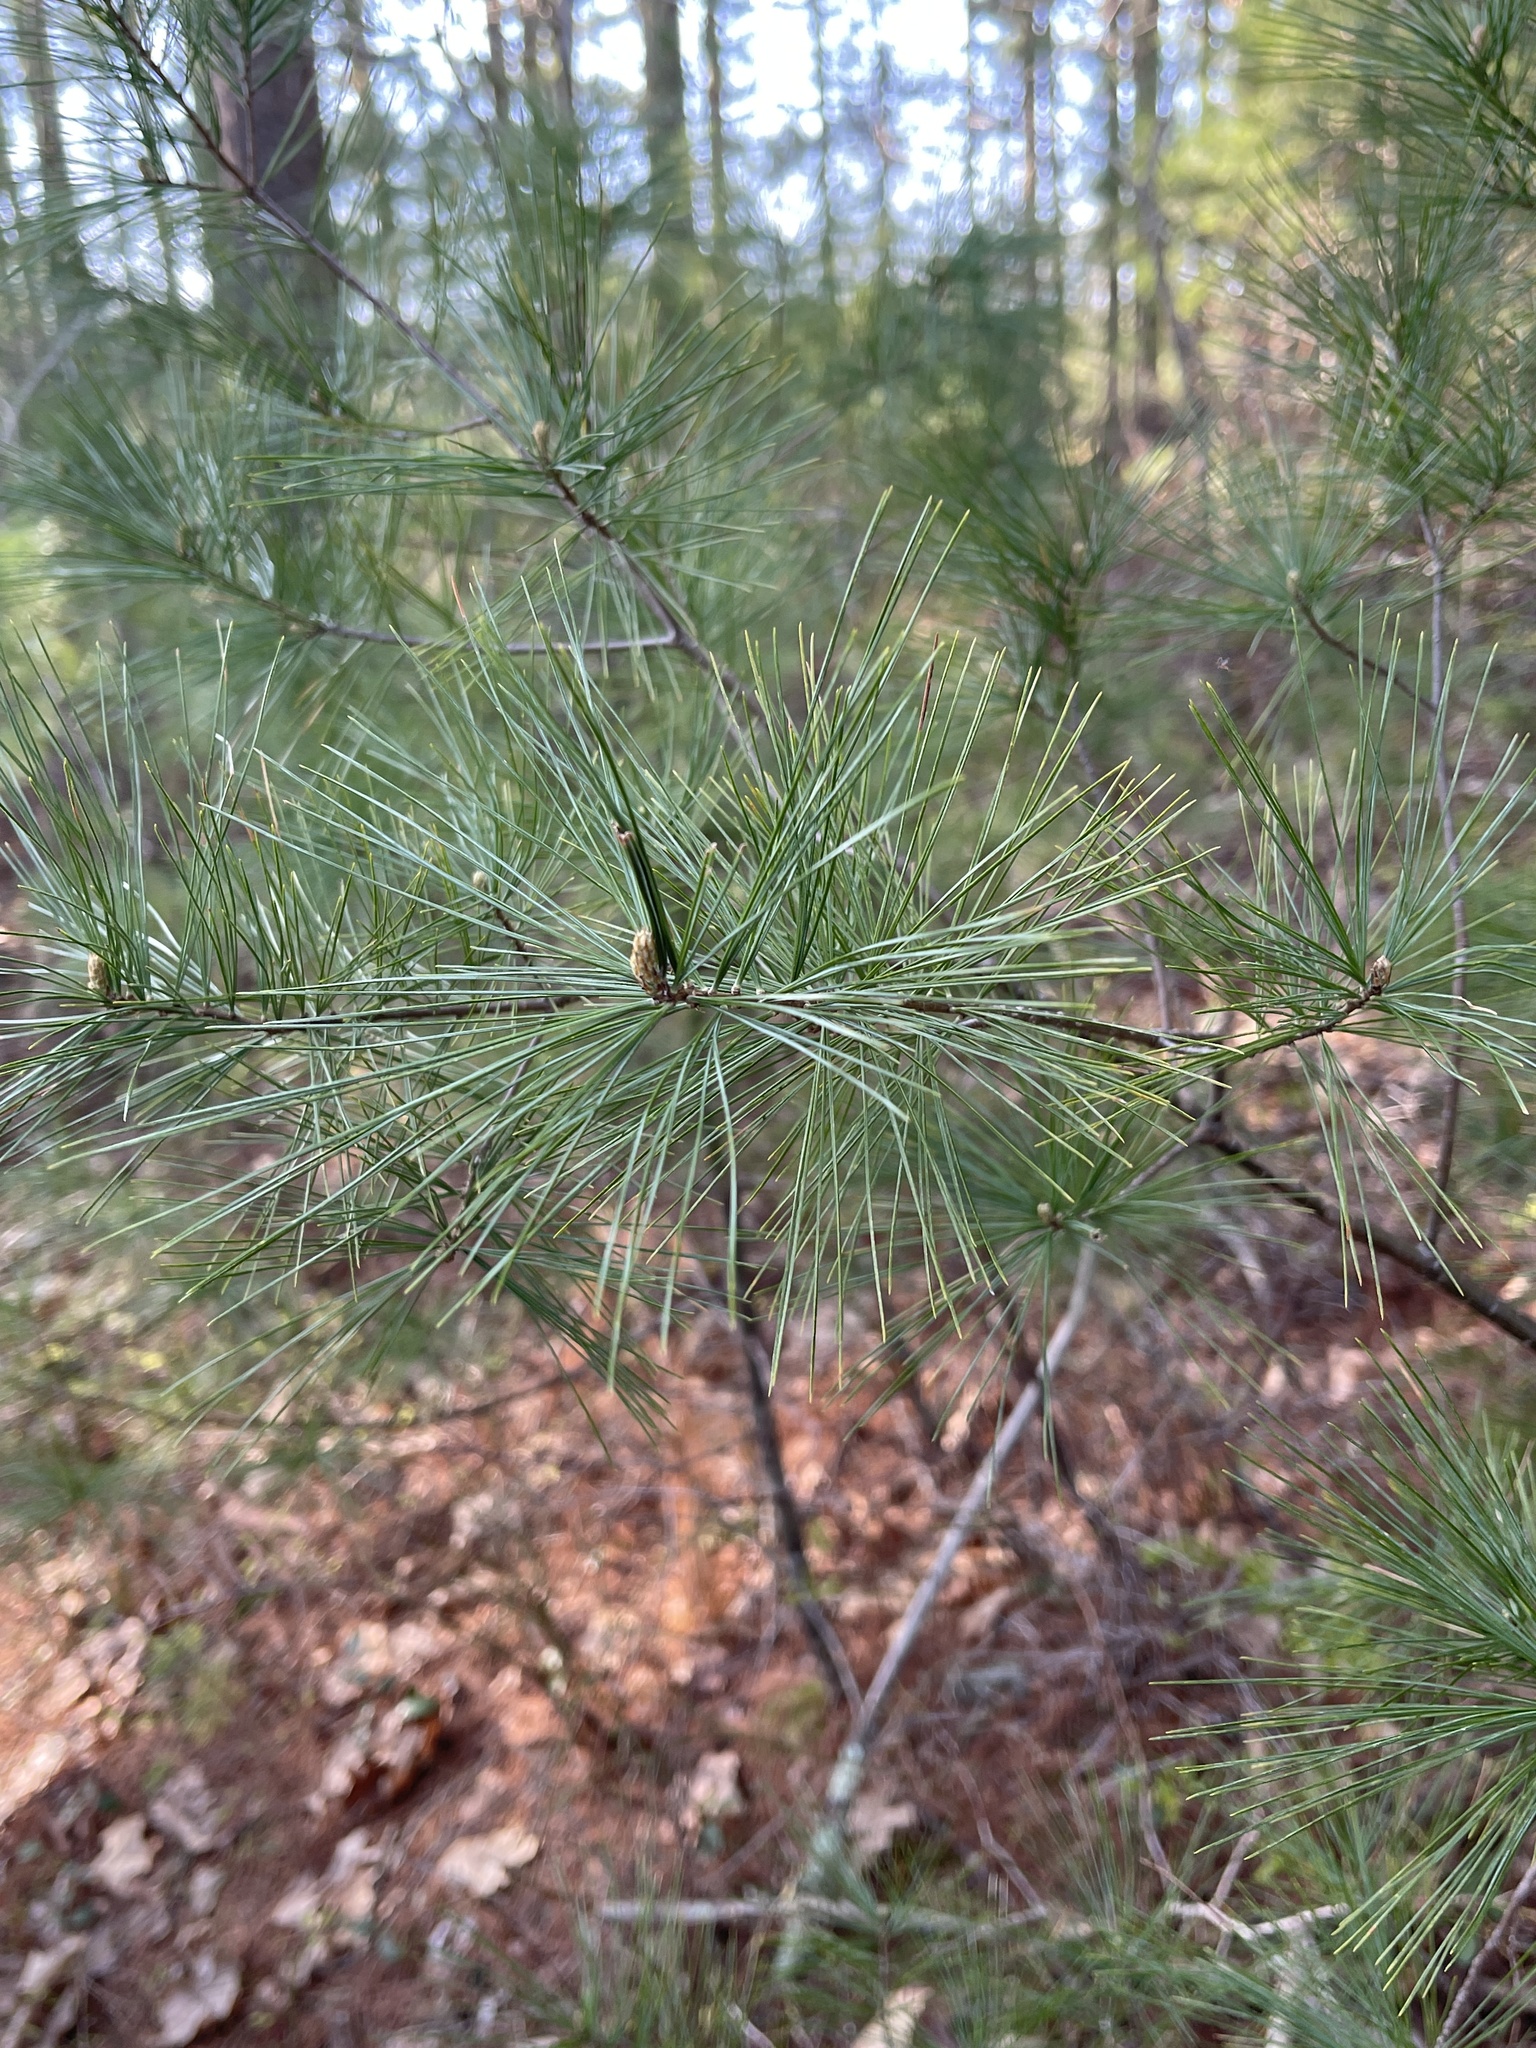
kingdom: Plantae
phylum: Tracheophyta
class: Pinopsida
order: Pinales
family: Pinaceae
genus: Pinus
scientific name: Pinus strobus
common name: Weymouth pine
